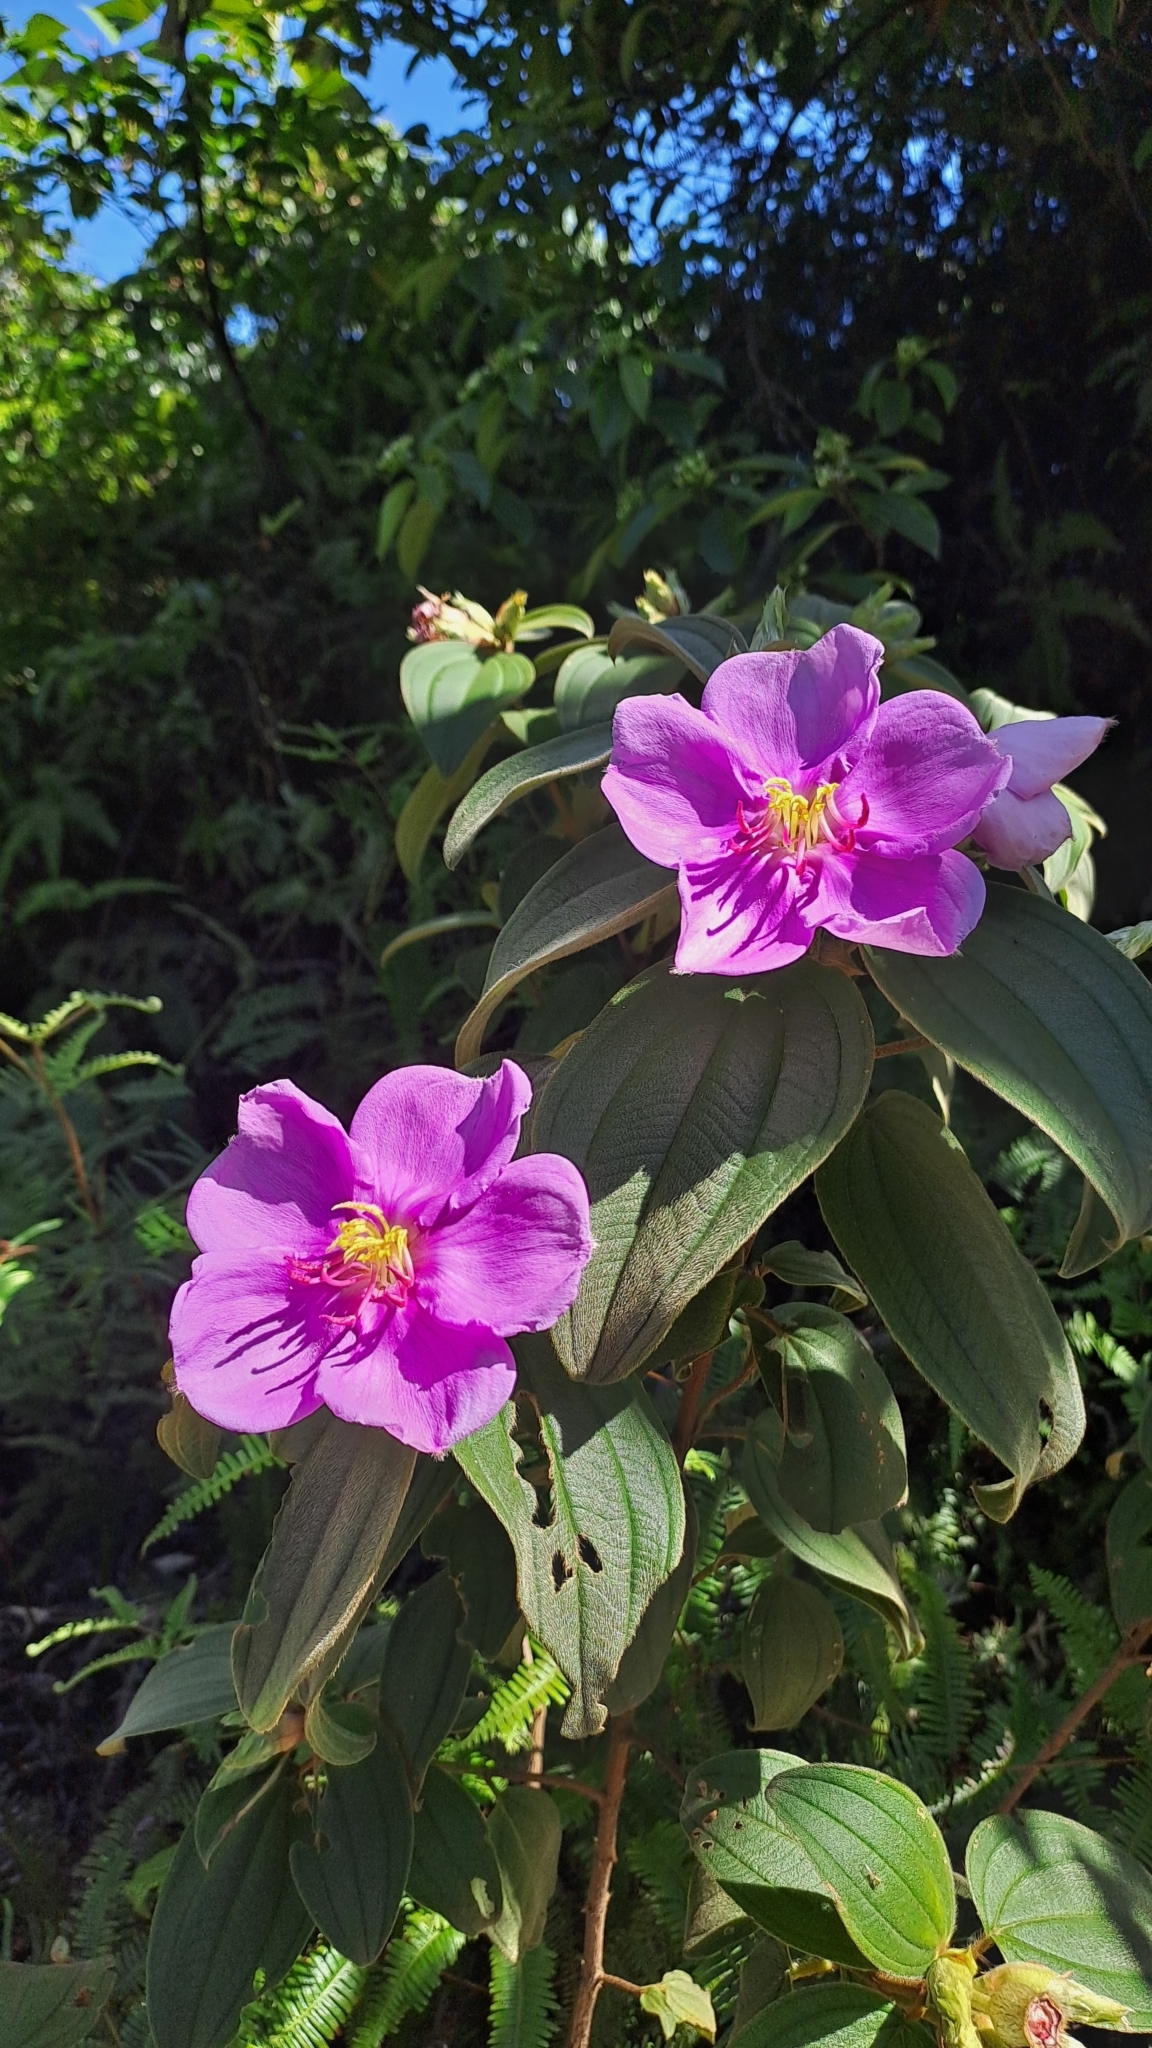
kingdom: Plantae
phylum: Tracheophyta
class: Magnoliopsida
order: Myrtales
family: Melastomataceae
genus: Melastoma
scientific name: Melastoma malabathricum
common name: Indian-rhododendron
